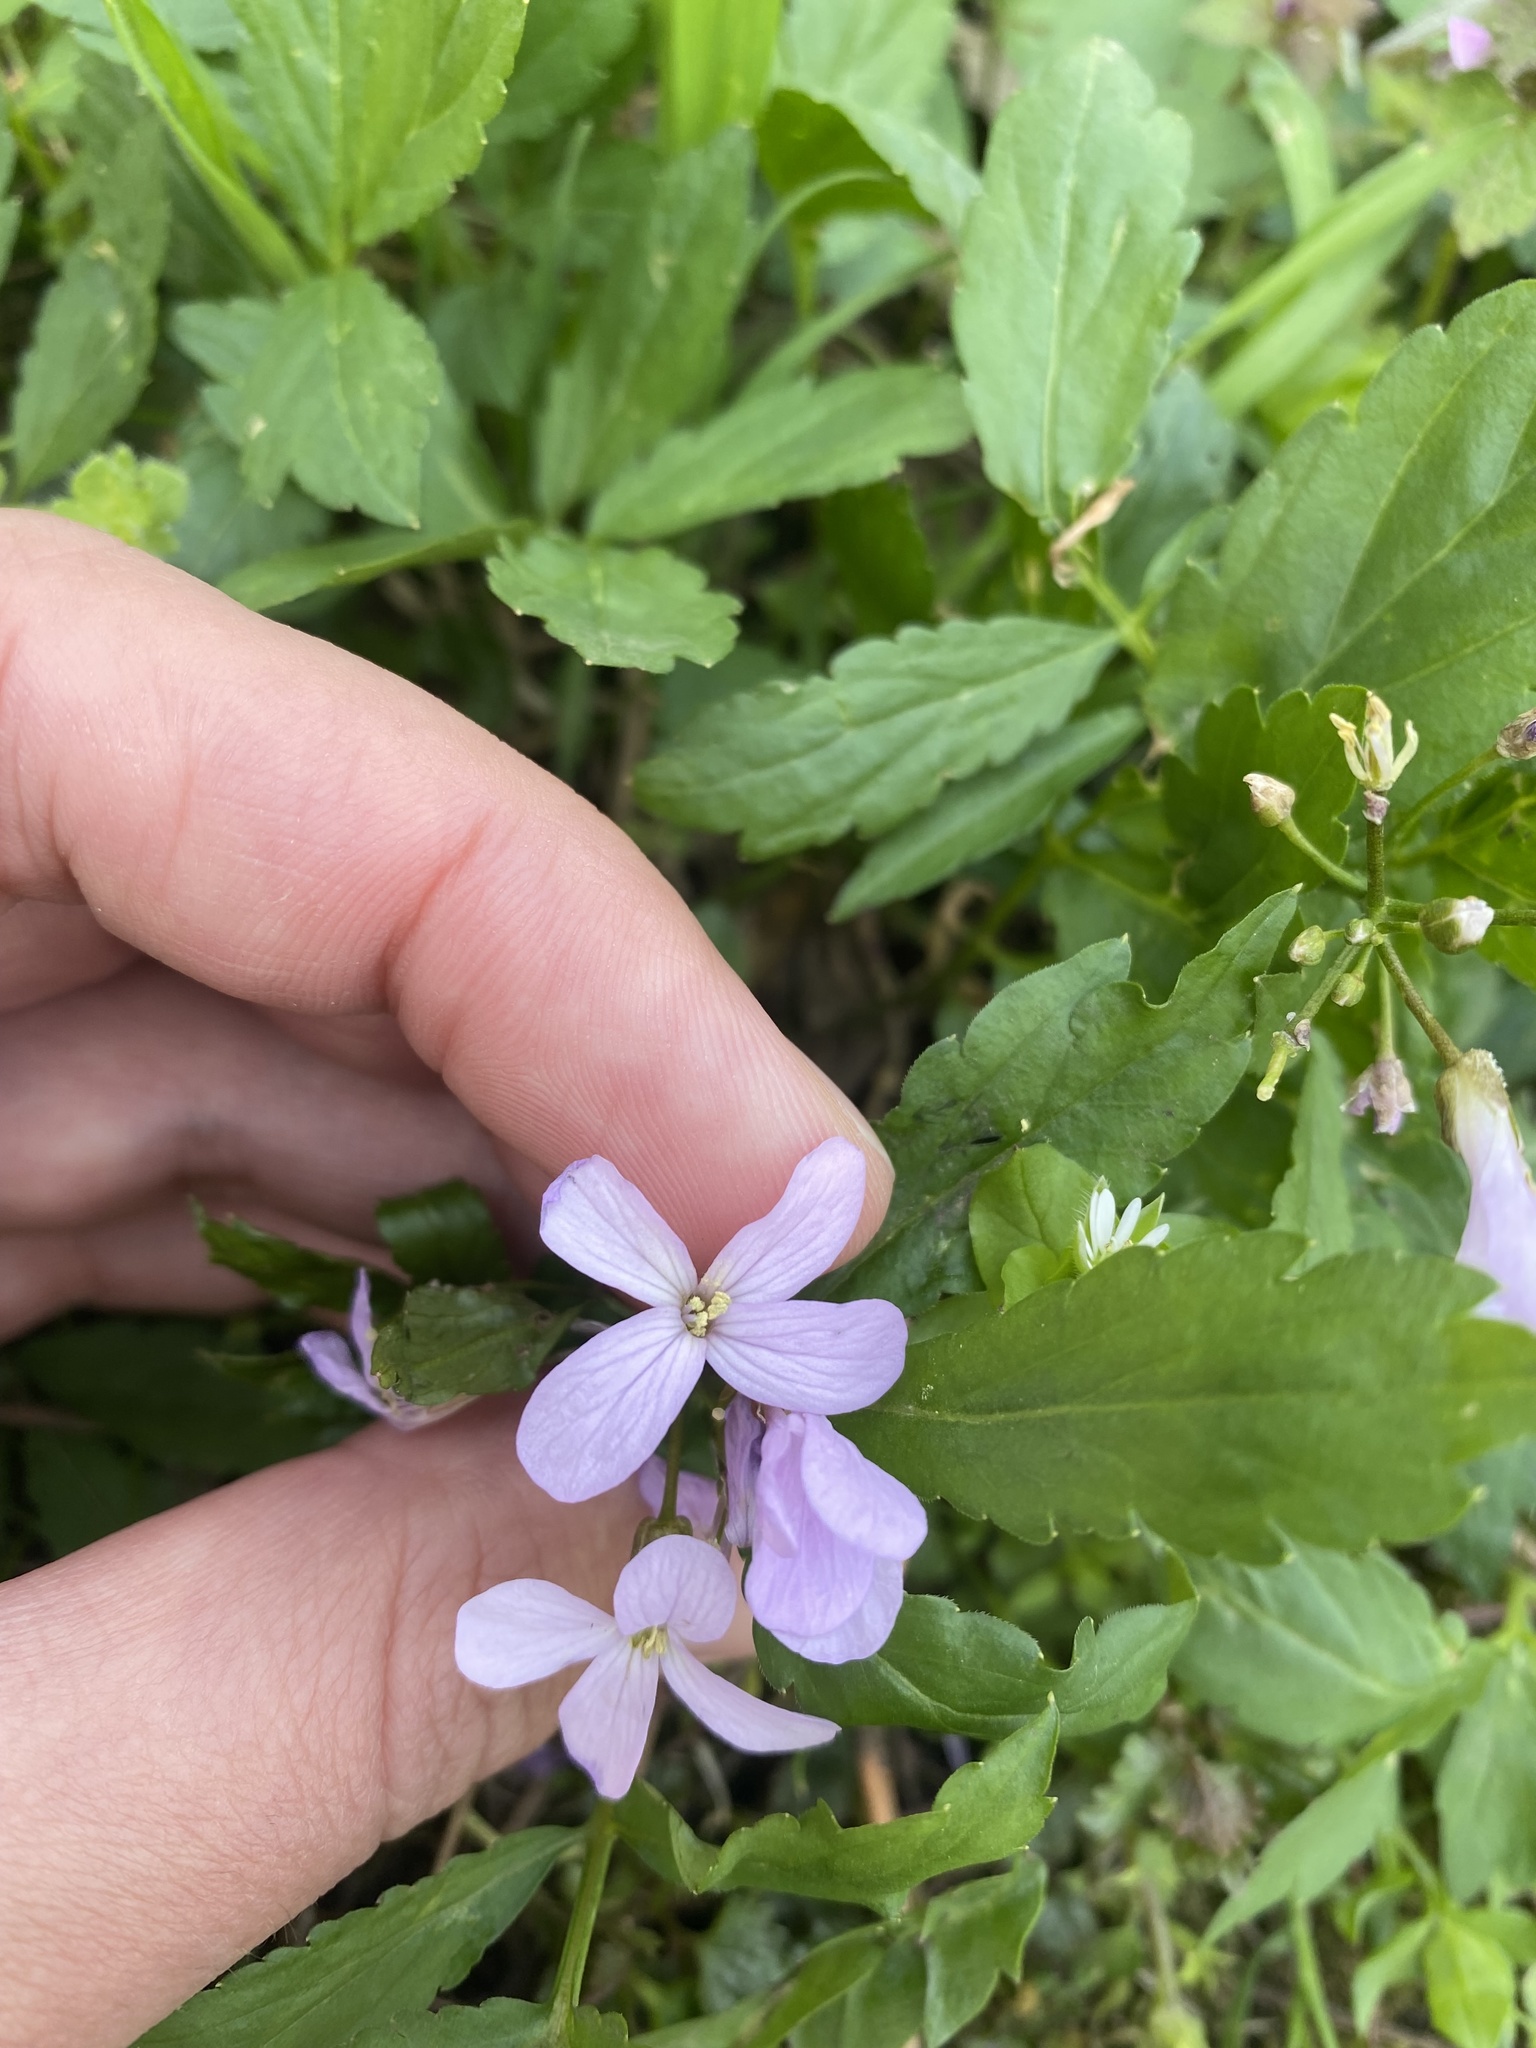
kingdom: Plantae
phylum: Tracheophyta
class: Magnoliopsida
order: Brassicales
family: Brassicaceae
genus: Cardamine
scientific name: Cardamine quinquefolia
